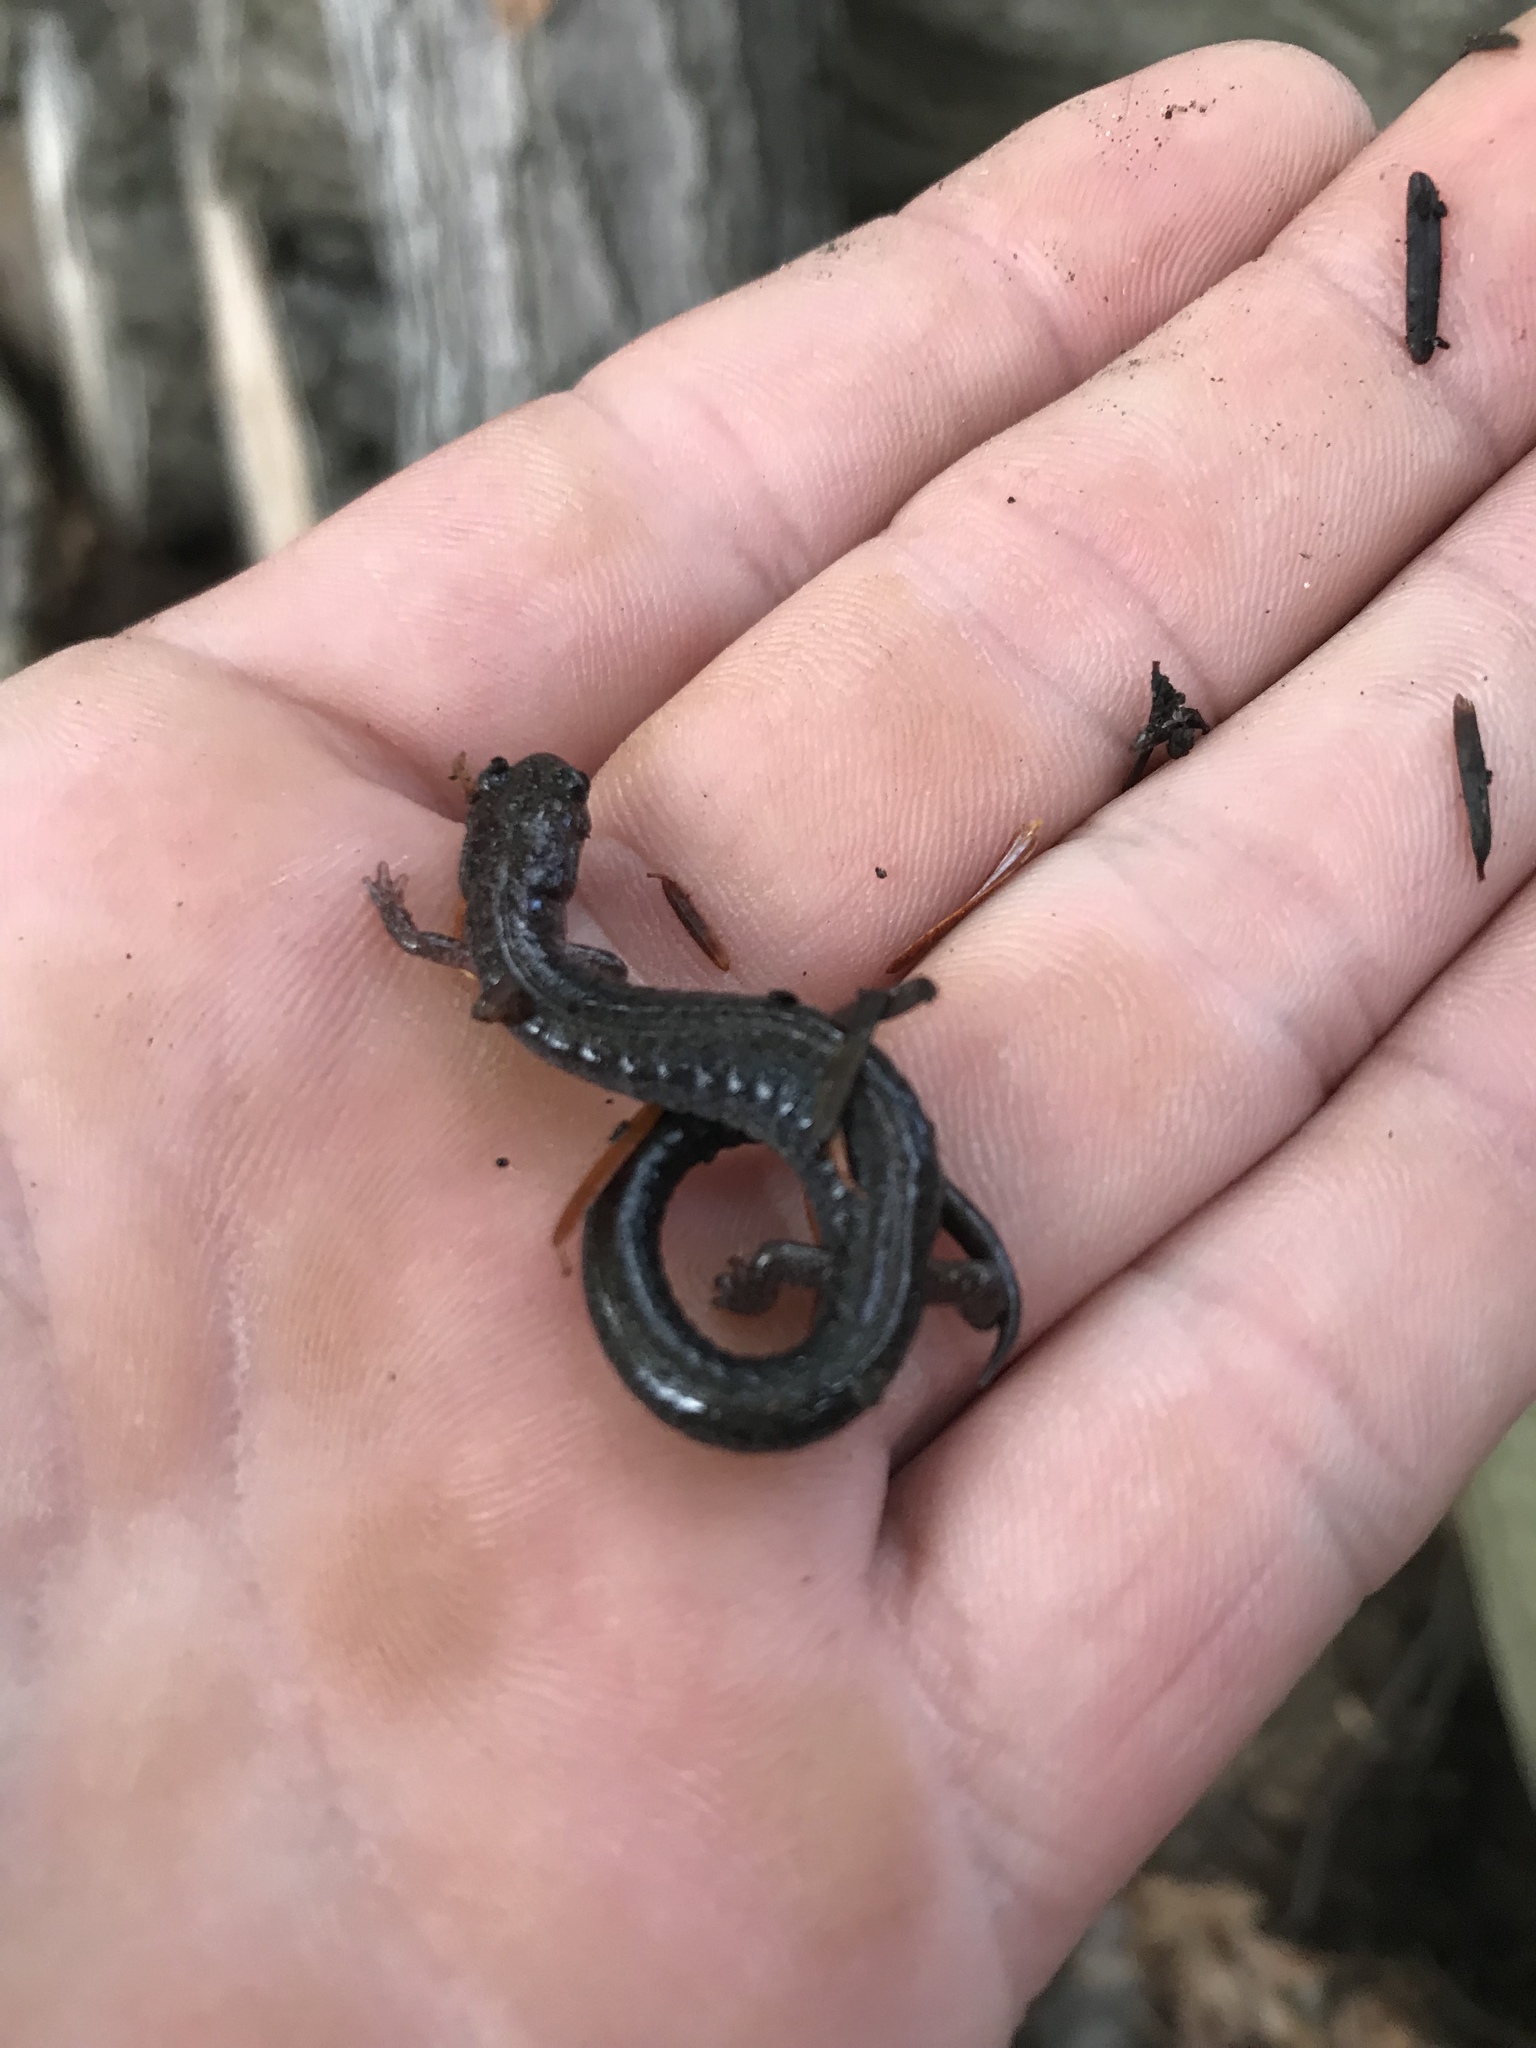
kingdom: Animalia
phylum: Chordata
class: Amphibia
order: Caudata
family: Plethodontidae
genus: Plethodon
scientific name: Plethodon cinereus
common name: Redback salamander
